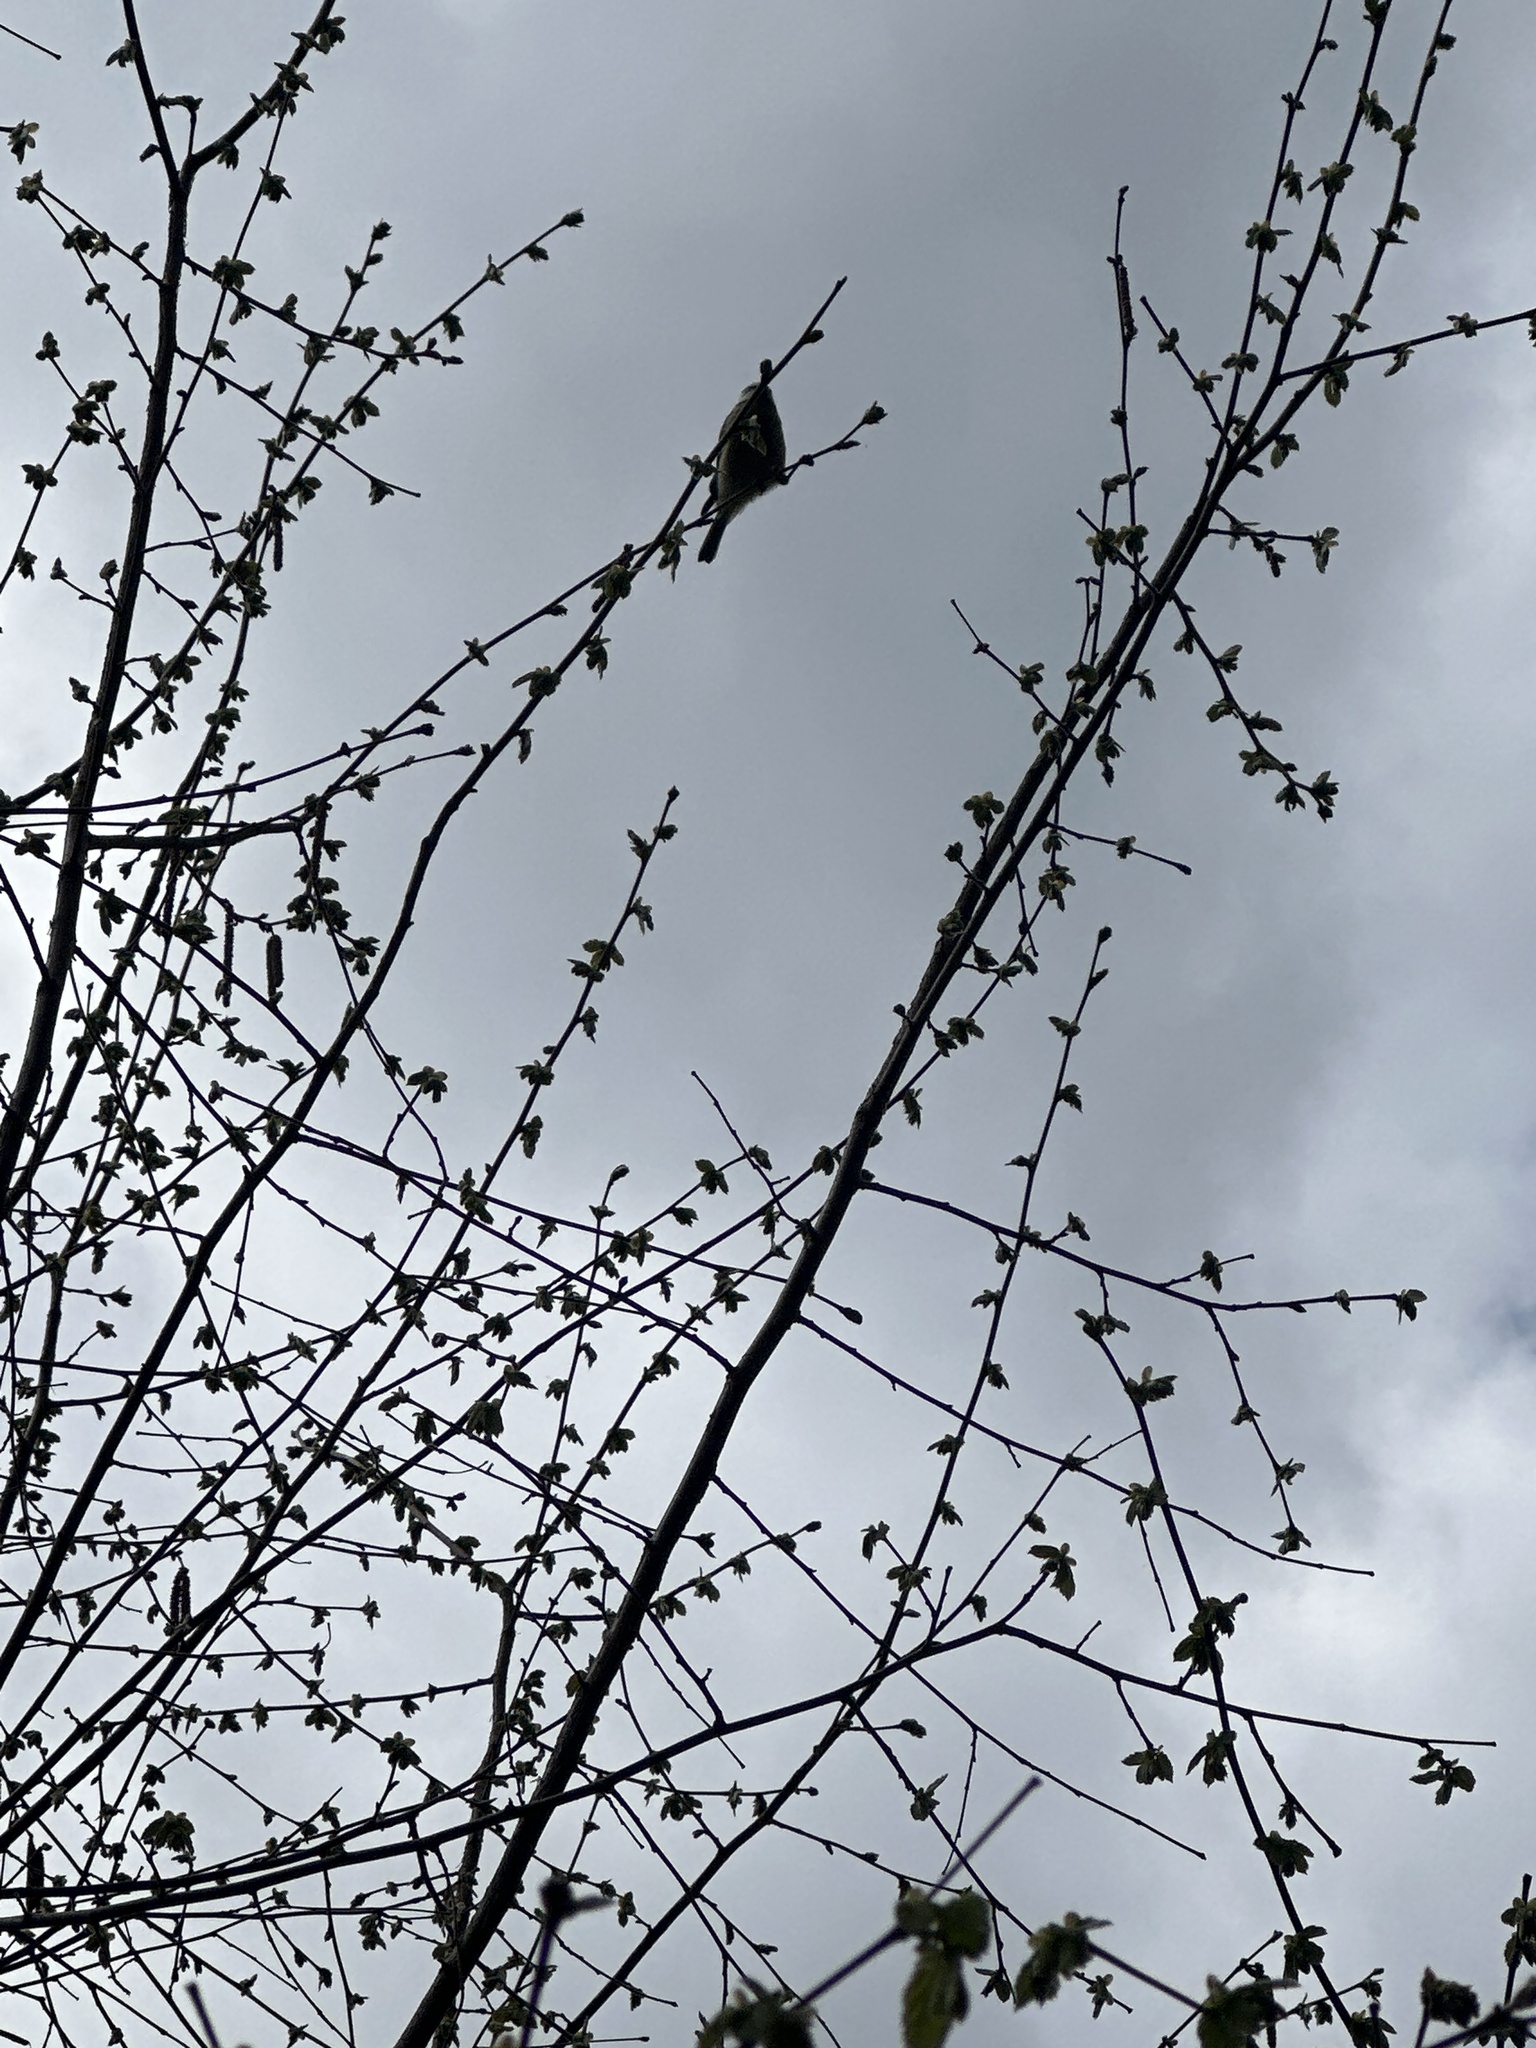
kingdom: Animalia
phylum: Chordata
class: Aves
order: Passeriformes
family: Paridae
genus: Cyanistes
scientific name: Cyanistes caeruleus
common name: Eurasian blue tit
